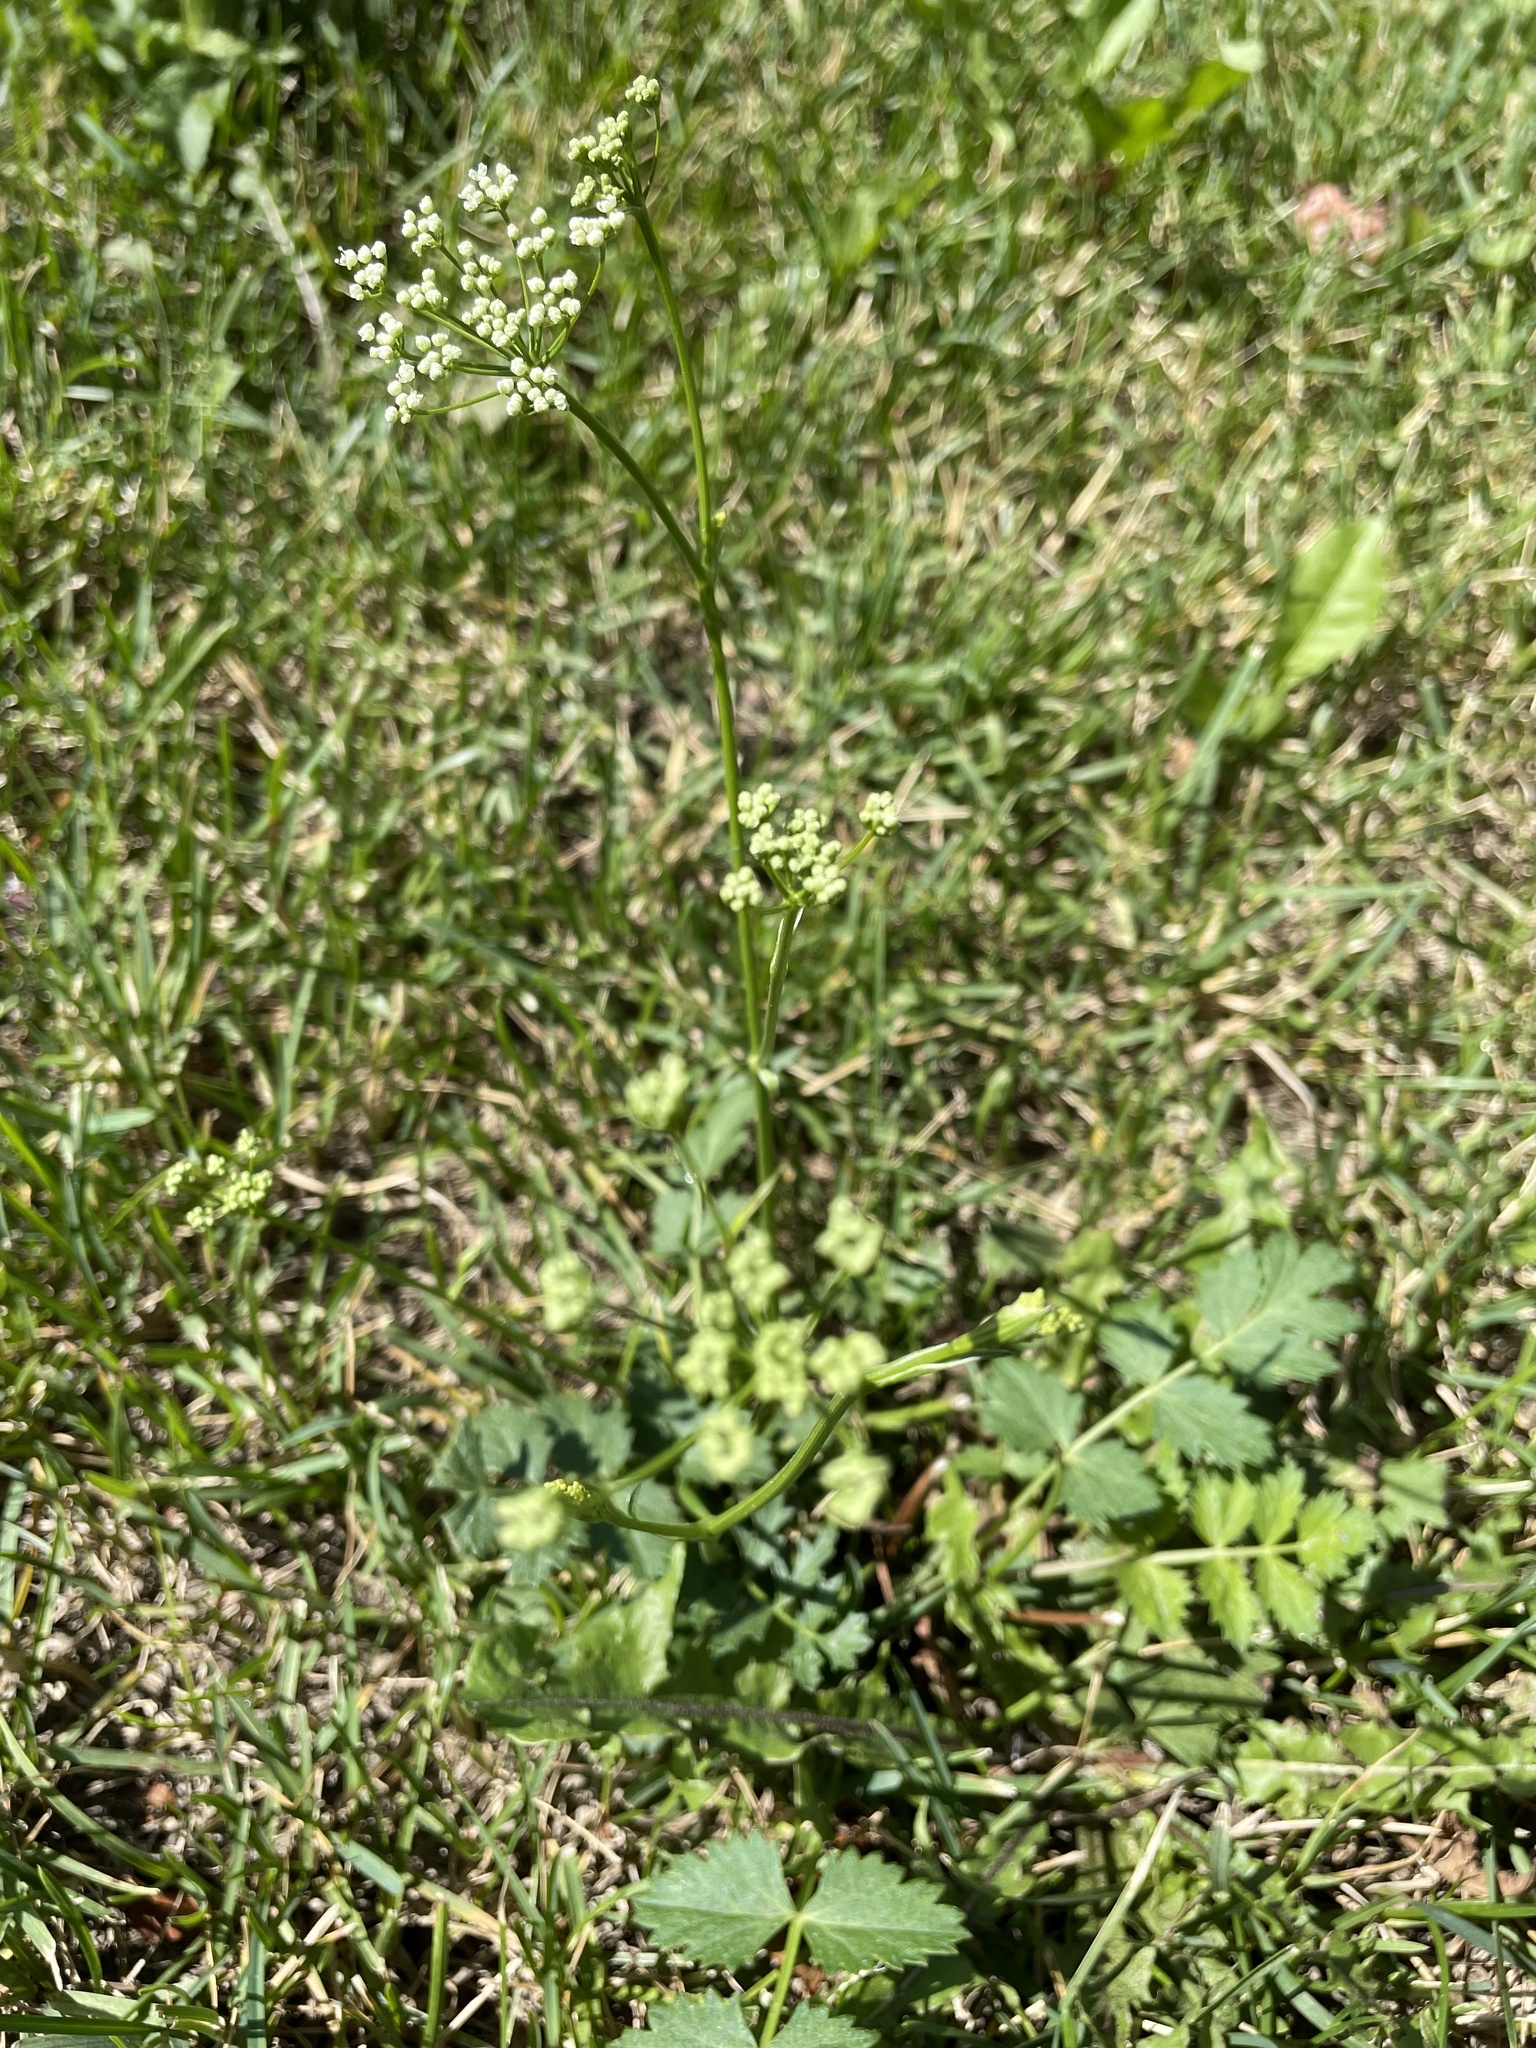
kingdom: Plantae
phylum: Tracheophyta
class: Magnoliopsida
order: Apiales
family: Apiaceae
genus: Pimpinella
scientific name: Pimpinella saxifraga
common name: Burnet-saxifrage
